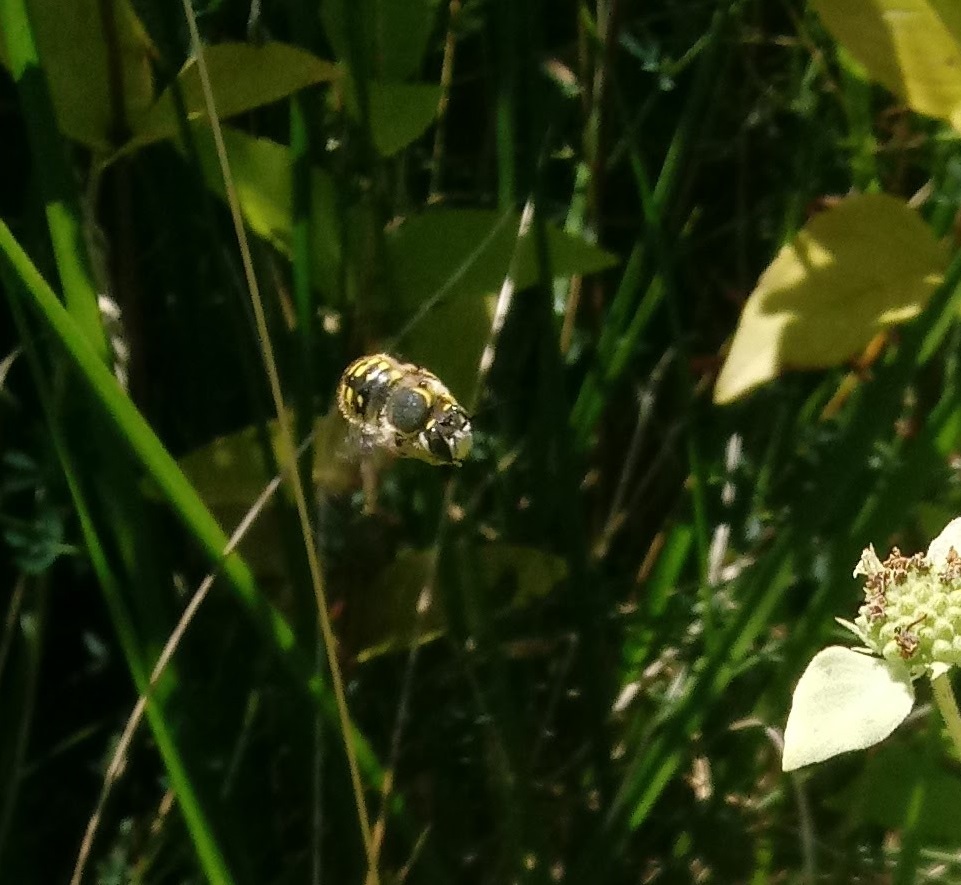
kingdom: Animalia
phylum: Arthropoda
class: Insecta
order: Hymenoptera
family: Megachilidae
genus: Anthidium
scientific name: Anthidium manicatum
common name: Wool carder bee
